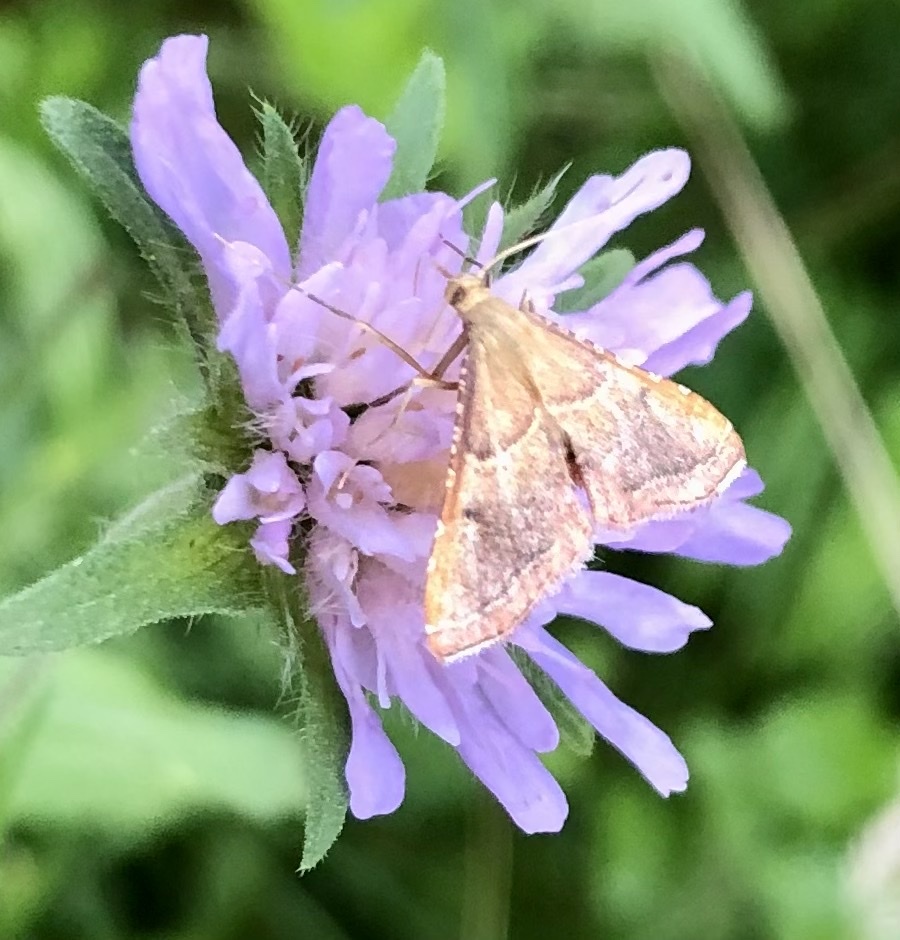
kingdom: Animalia
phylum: Arthropoda
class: Insecta
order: Lepidoptera
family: Pyralidae
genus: Endotricha
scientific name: Endotricha flammealis
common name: Rosy tabby
